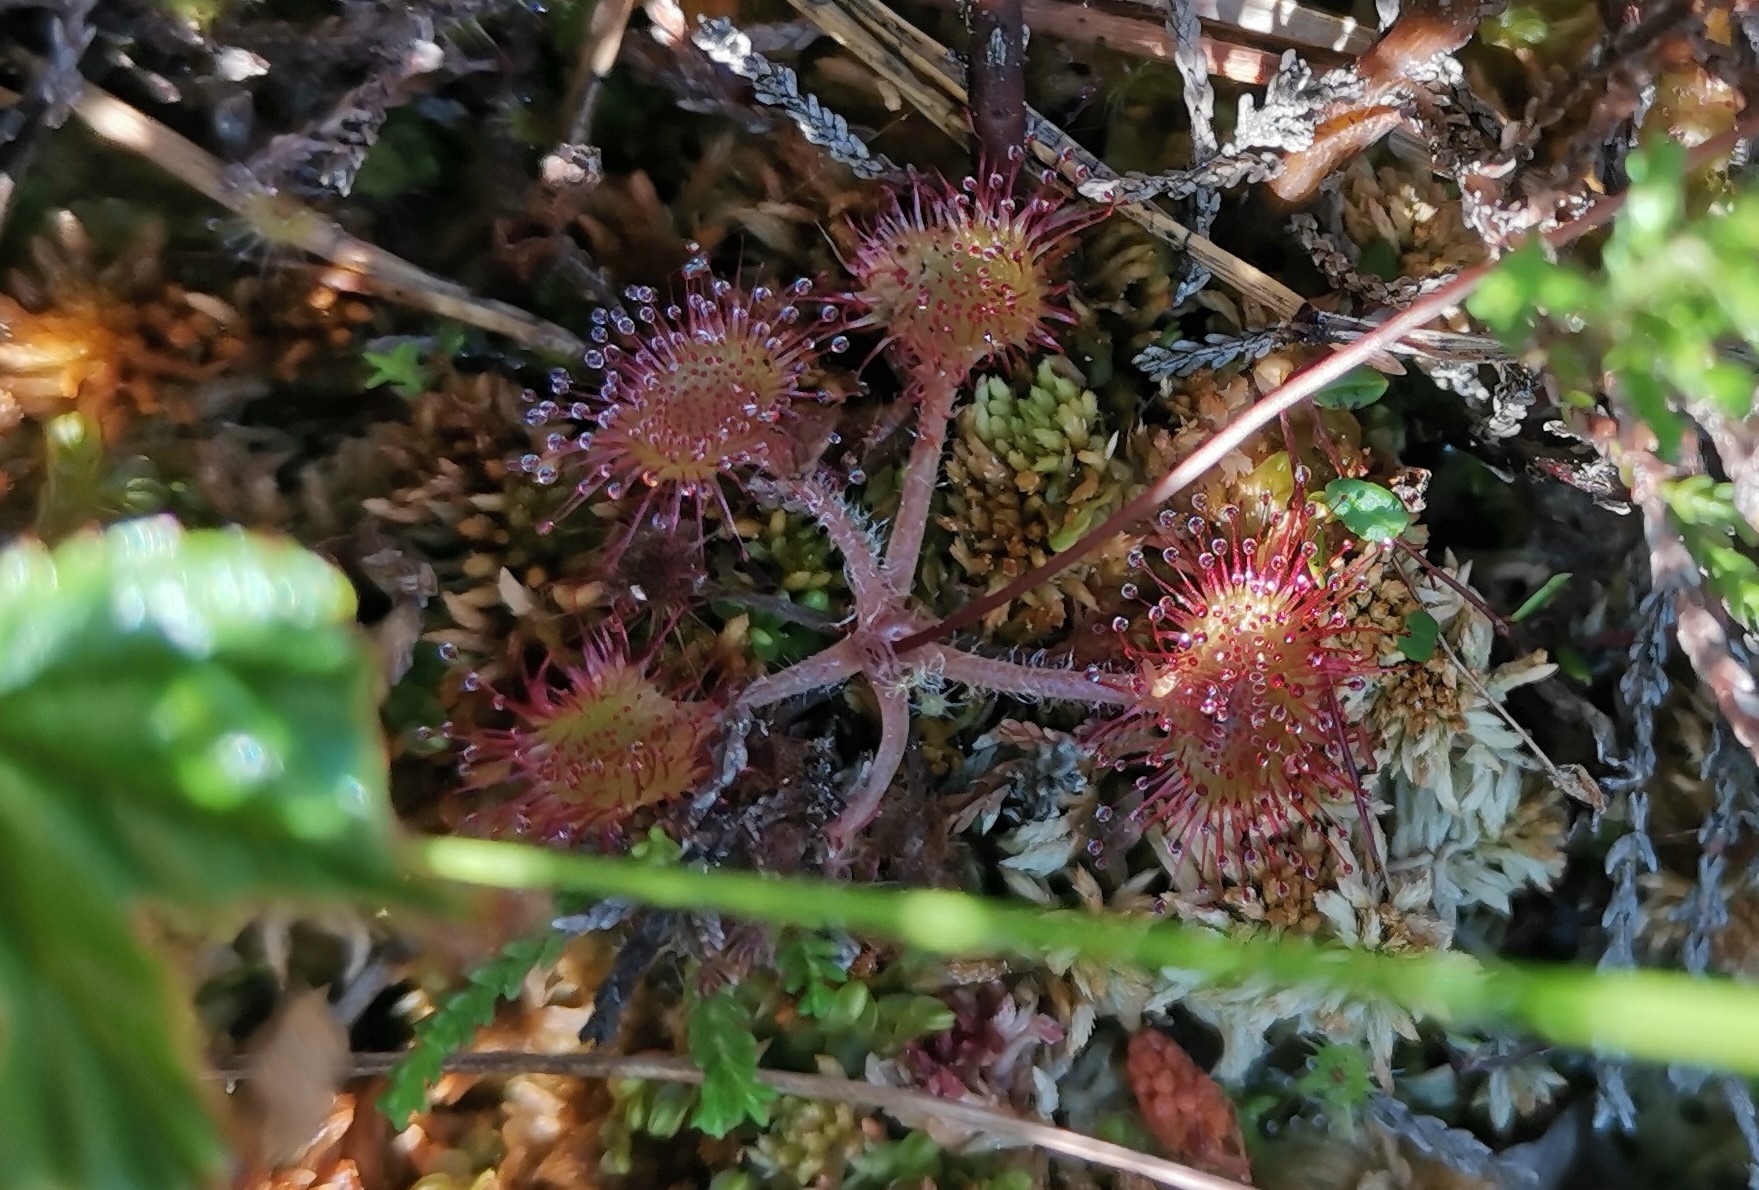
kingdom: Plantae
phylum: Tracheophyta
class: Magnoliopsida
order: Caryophyllales
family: Droseraceae
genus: Drosera
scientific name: Drosera rotundifolia
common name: Round-leaved sundew
